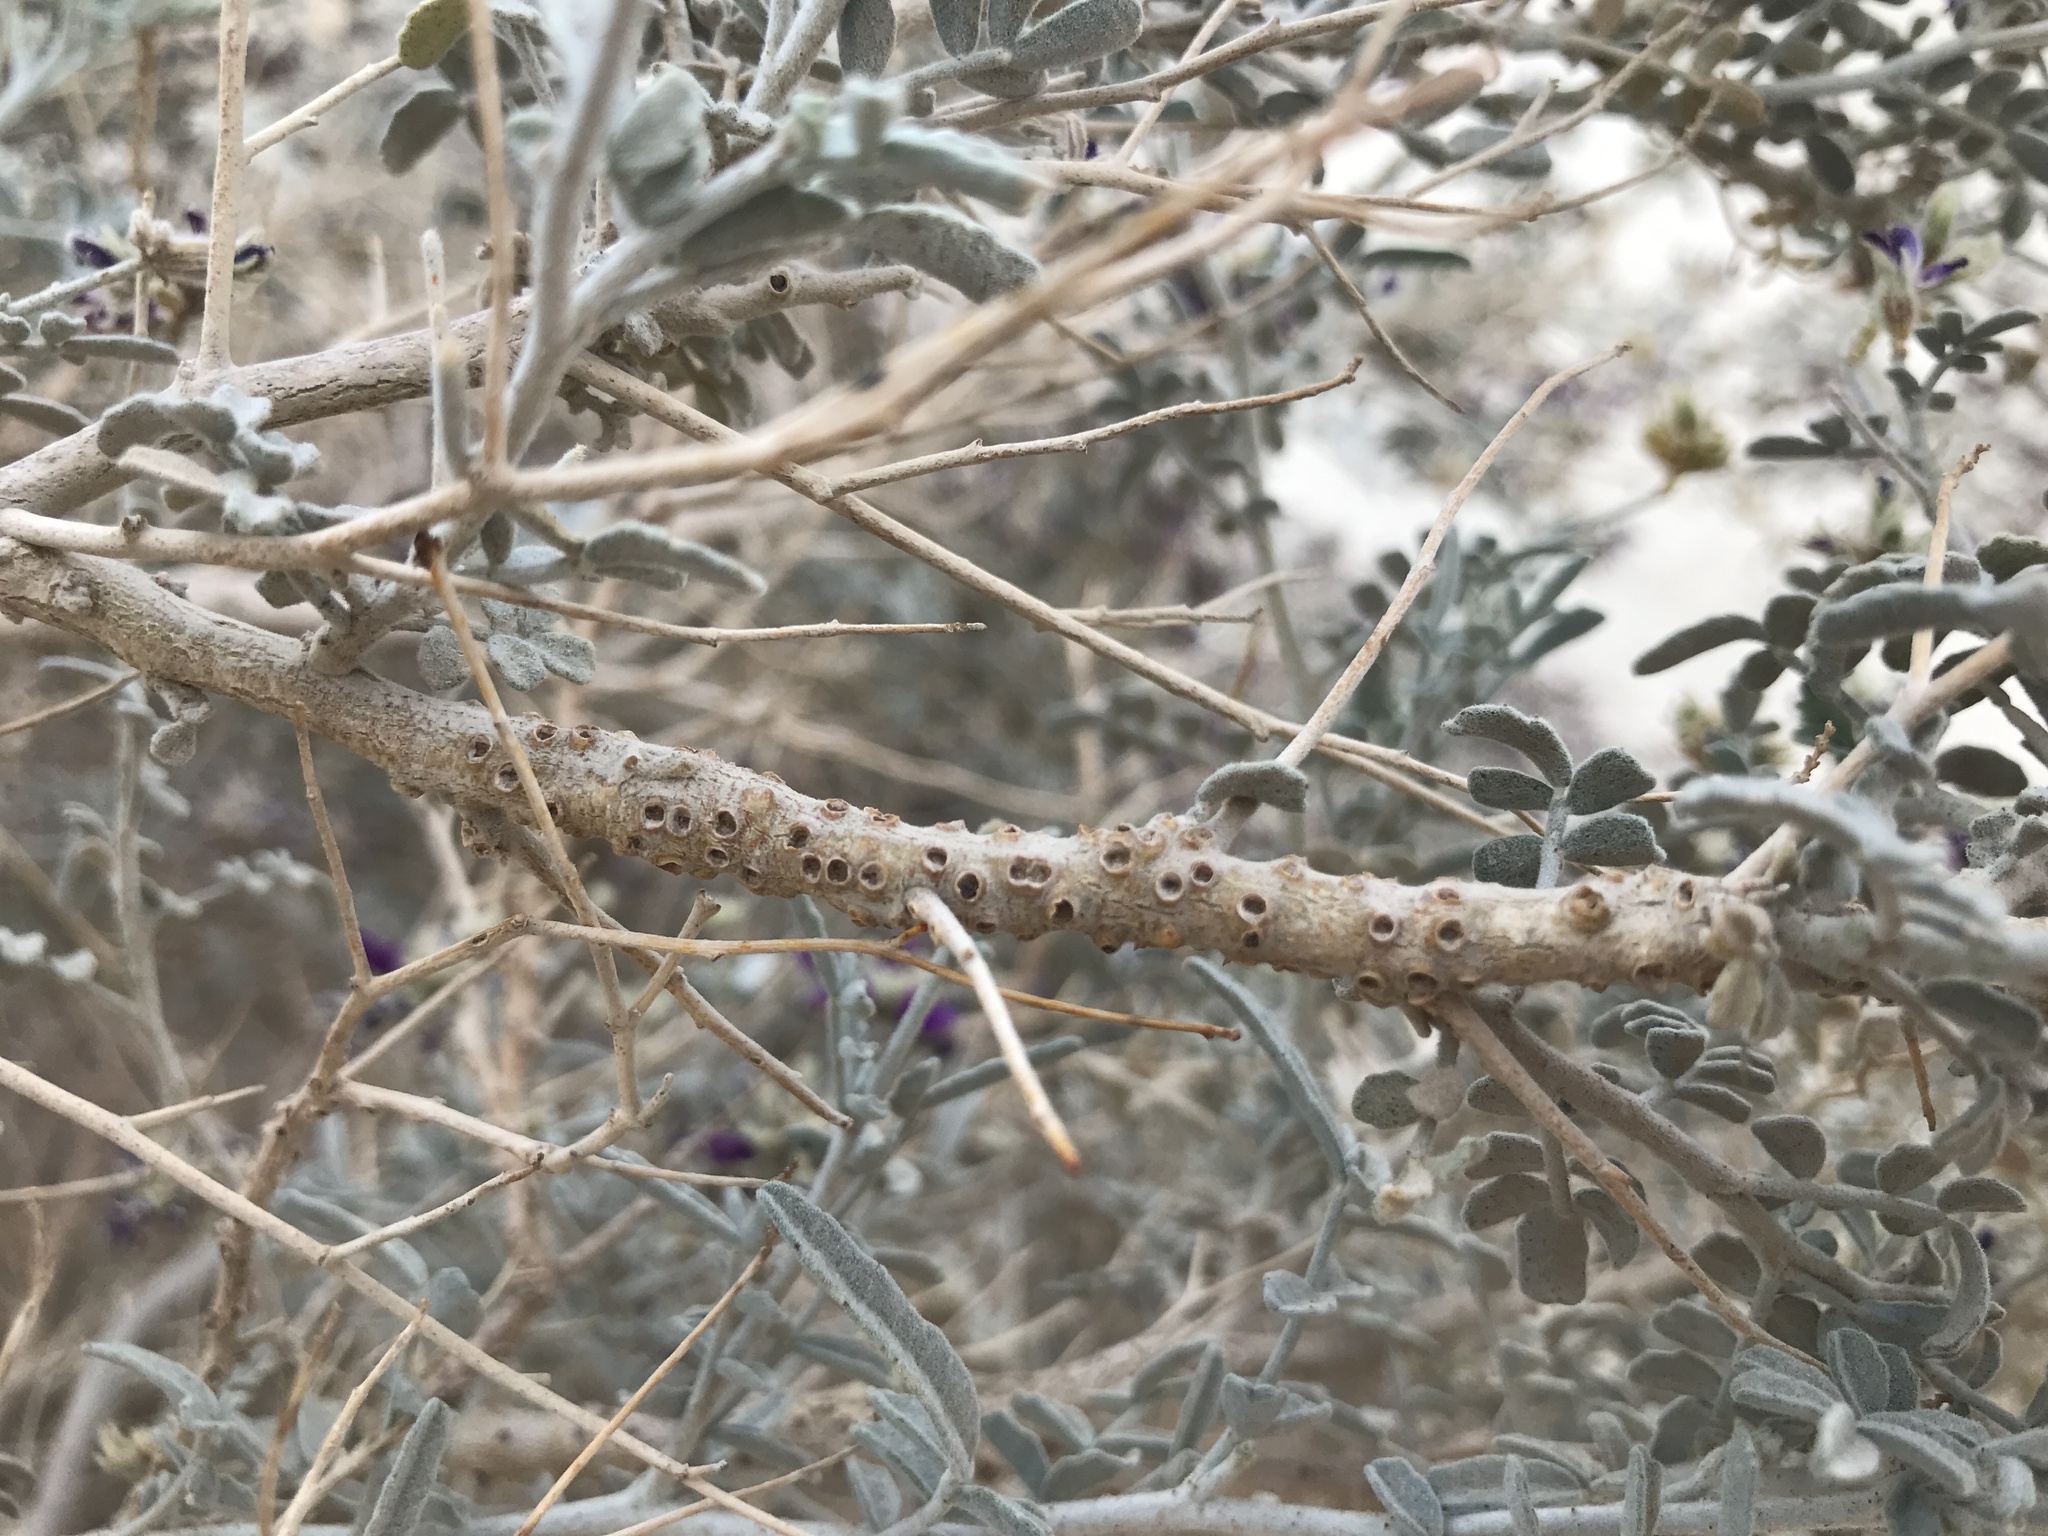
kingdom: Plantae
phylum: Tracheophyta
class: Magnoliopsida
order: Cucurbitales
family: Apodanthaceae
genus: Pilostyles
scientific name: Pilostyles thurberi
